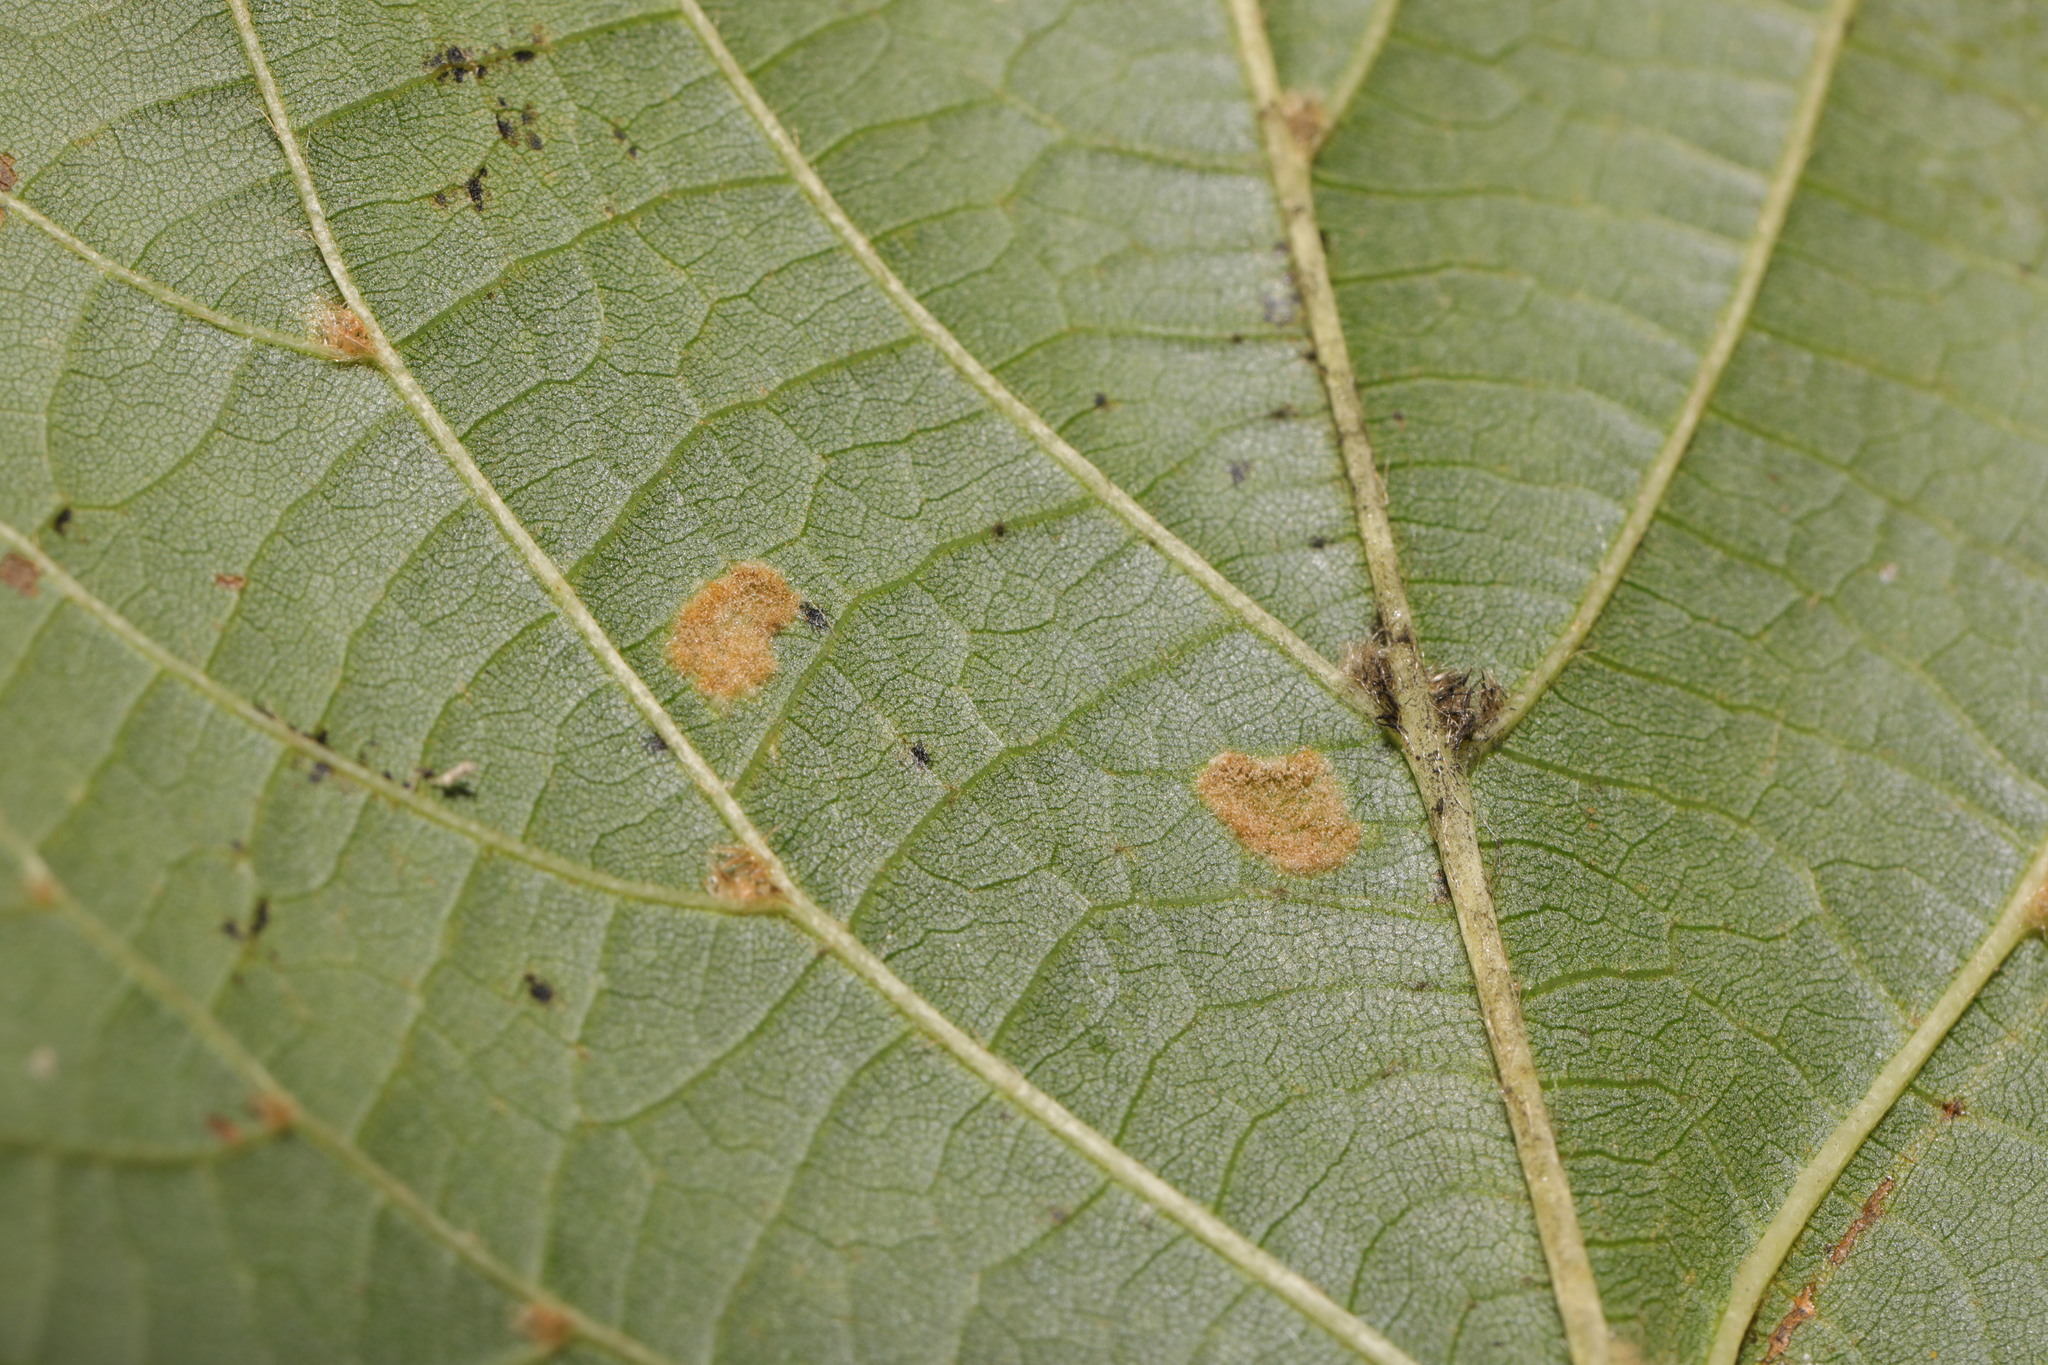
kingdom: Animalia
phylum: Arthropoda
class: Arachnida
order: Trombidiformes
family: Eriophyidae
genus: Eriophyes
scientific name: Eriophyes leiosoma
